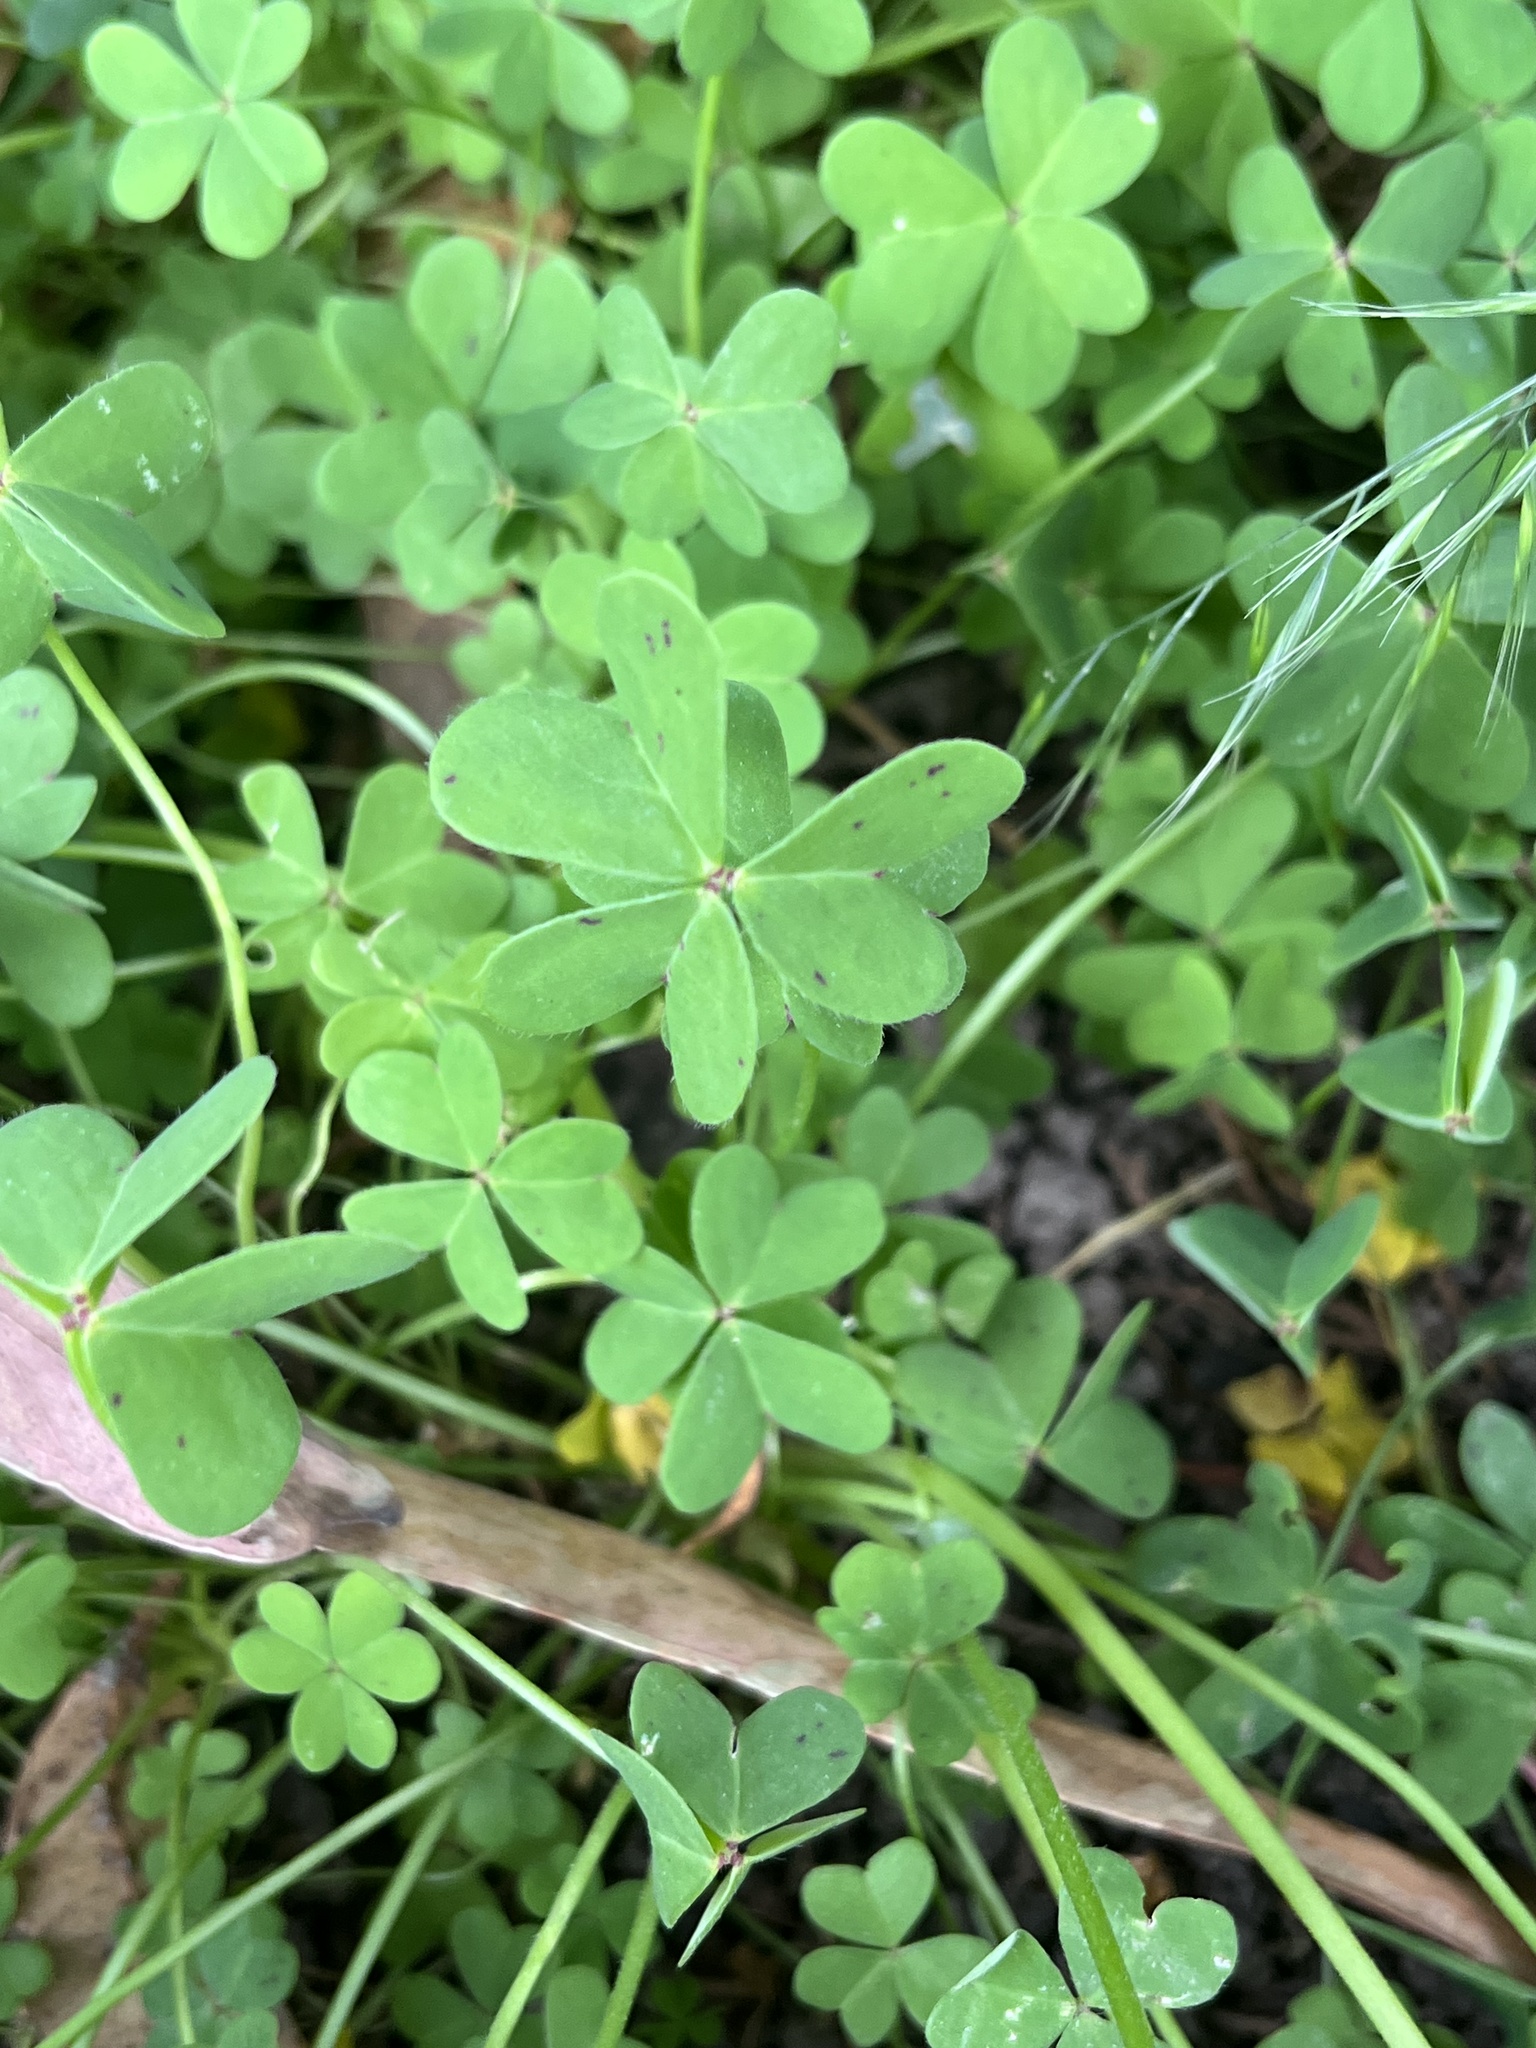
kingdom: Plantae
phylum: Tracheophyta
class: Magnoliopsida
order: Oxalidales
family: Oxalidaceae
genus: Oxalis
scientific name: Oxalis pes-caprae
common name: Bermuda-buttercup
